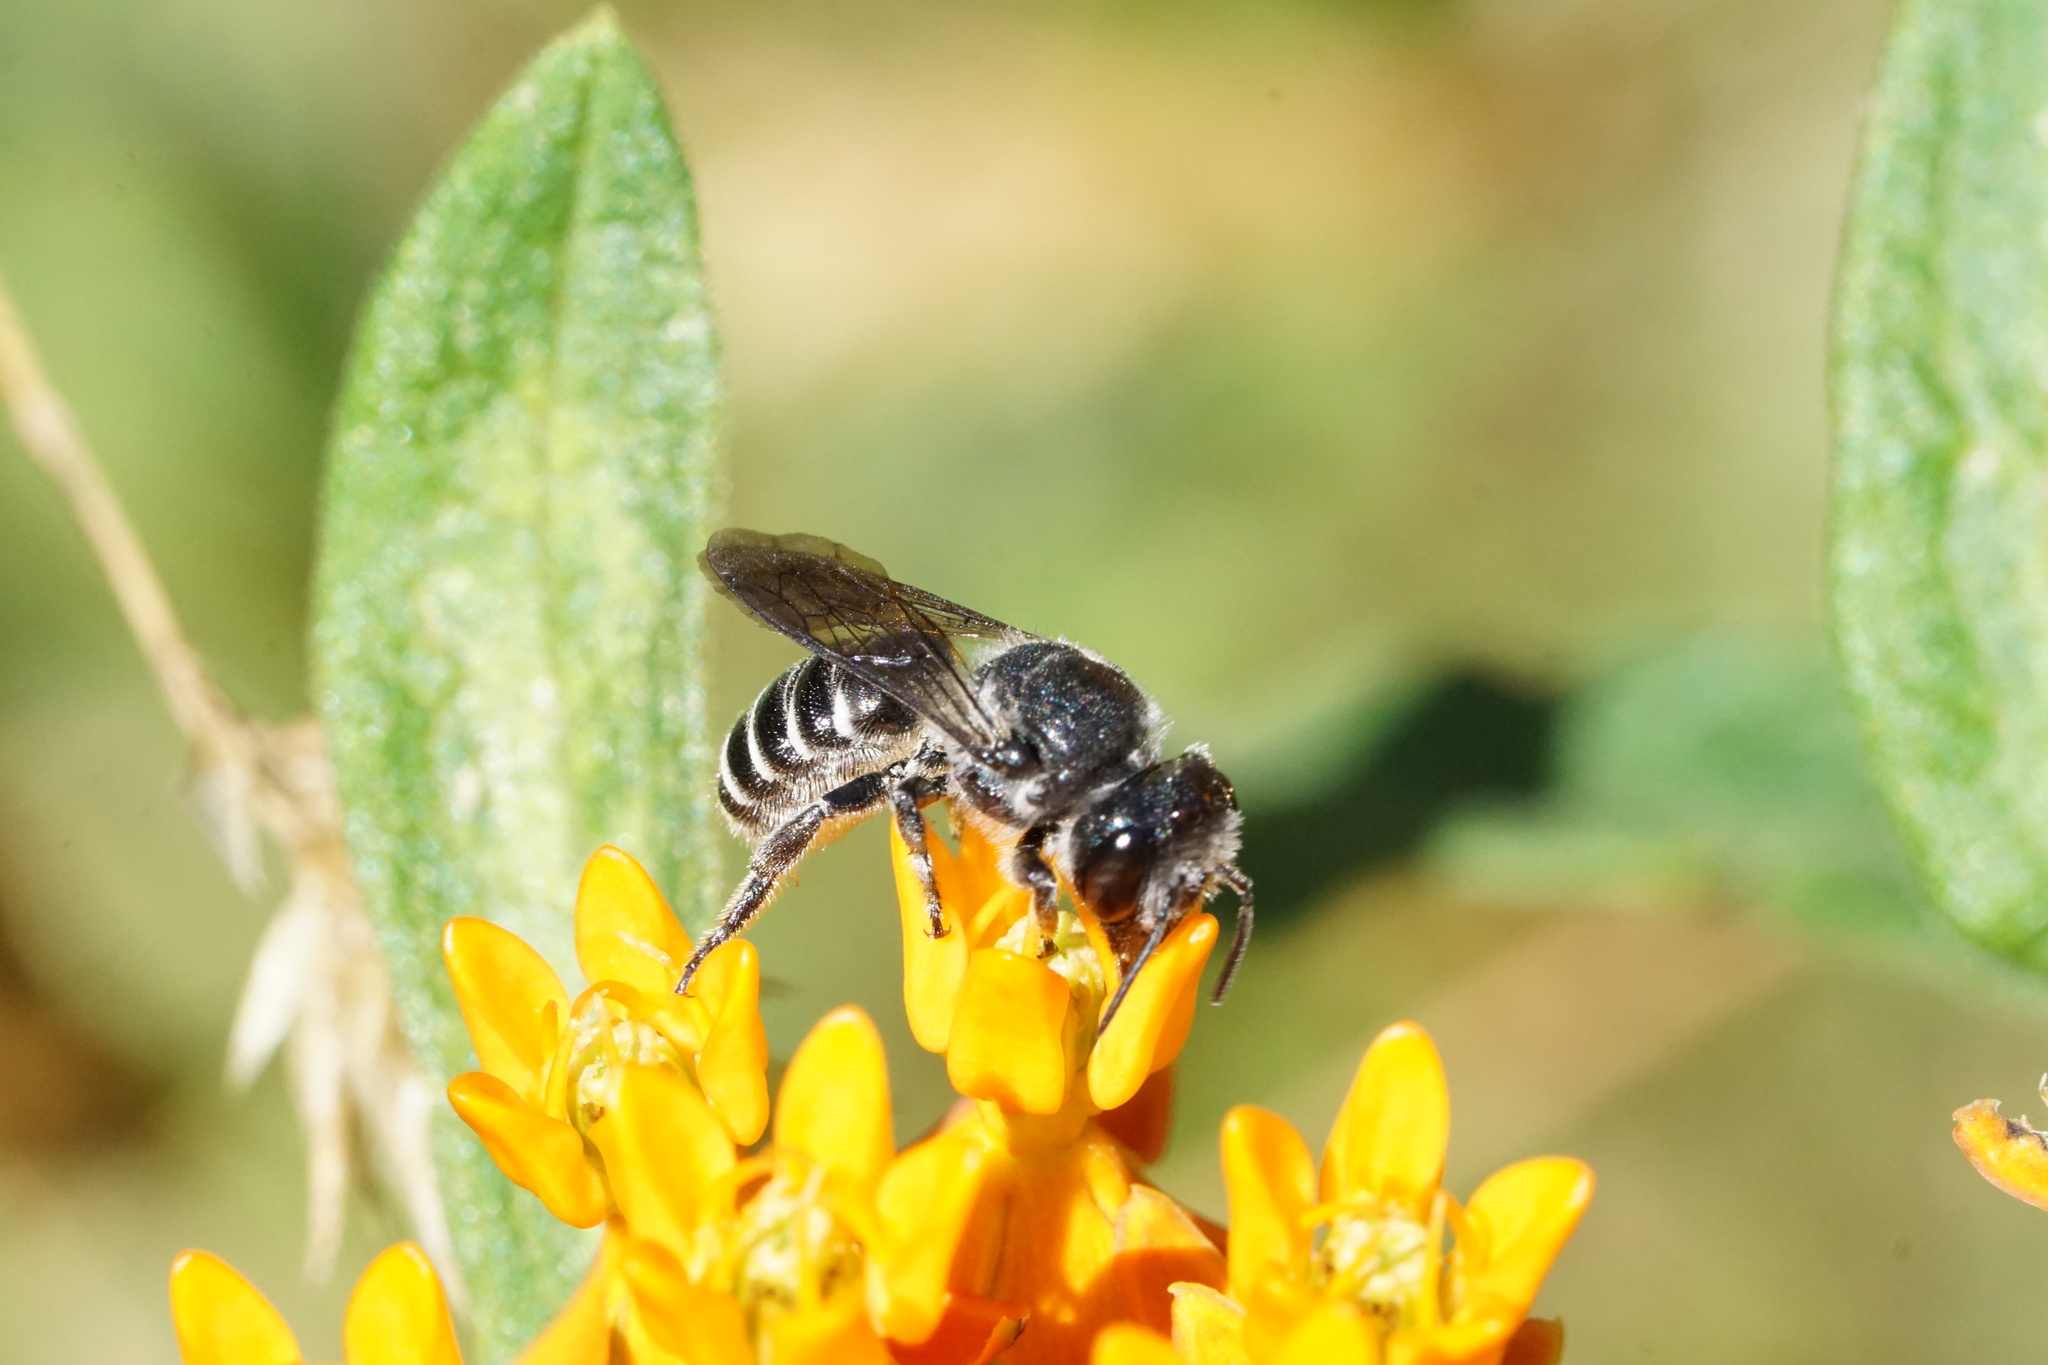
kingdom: Animalia
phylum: Arthropoda
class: Insecta
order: Hymenoptera
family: Megachilidae
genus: Megachile
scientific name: Megachile campanulae
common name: Bellflower resin bee
